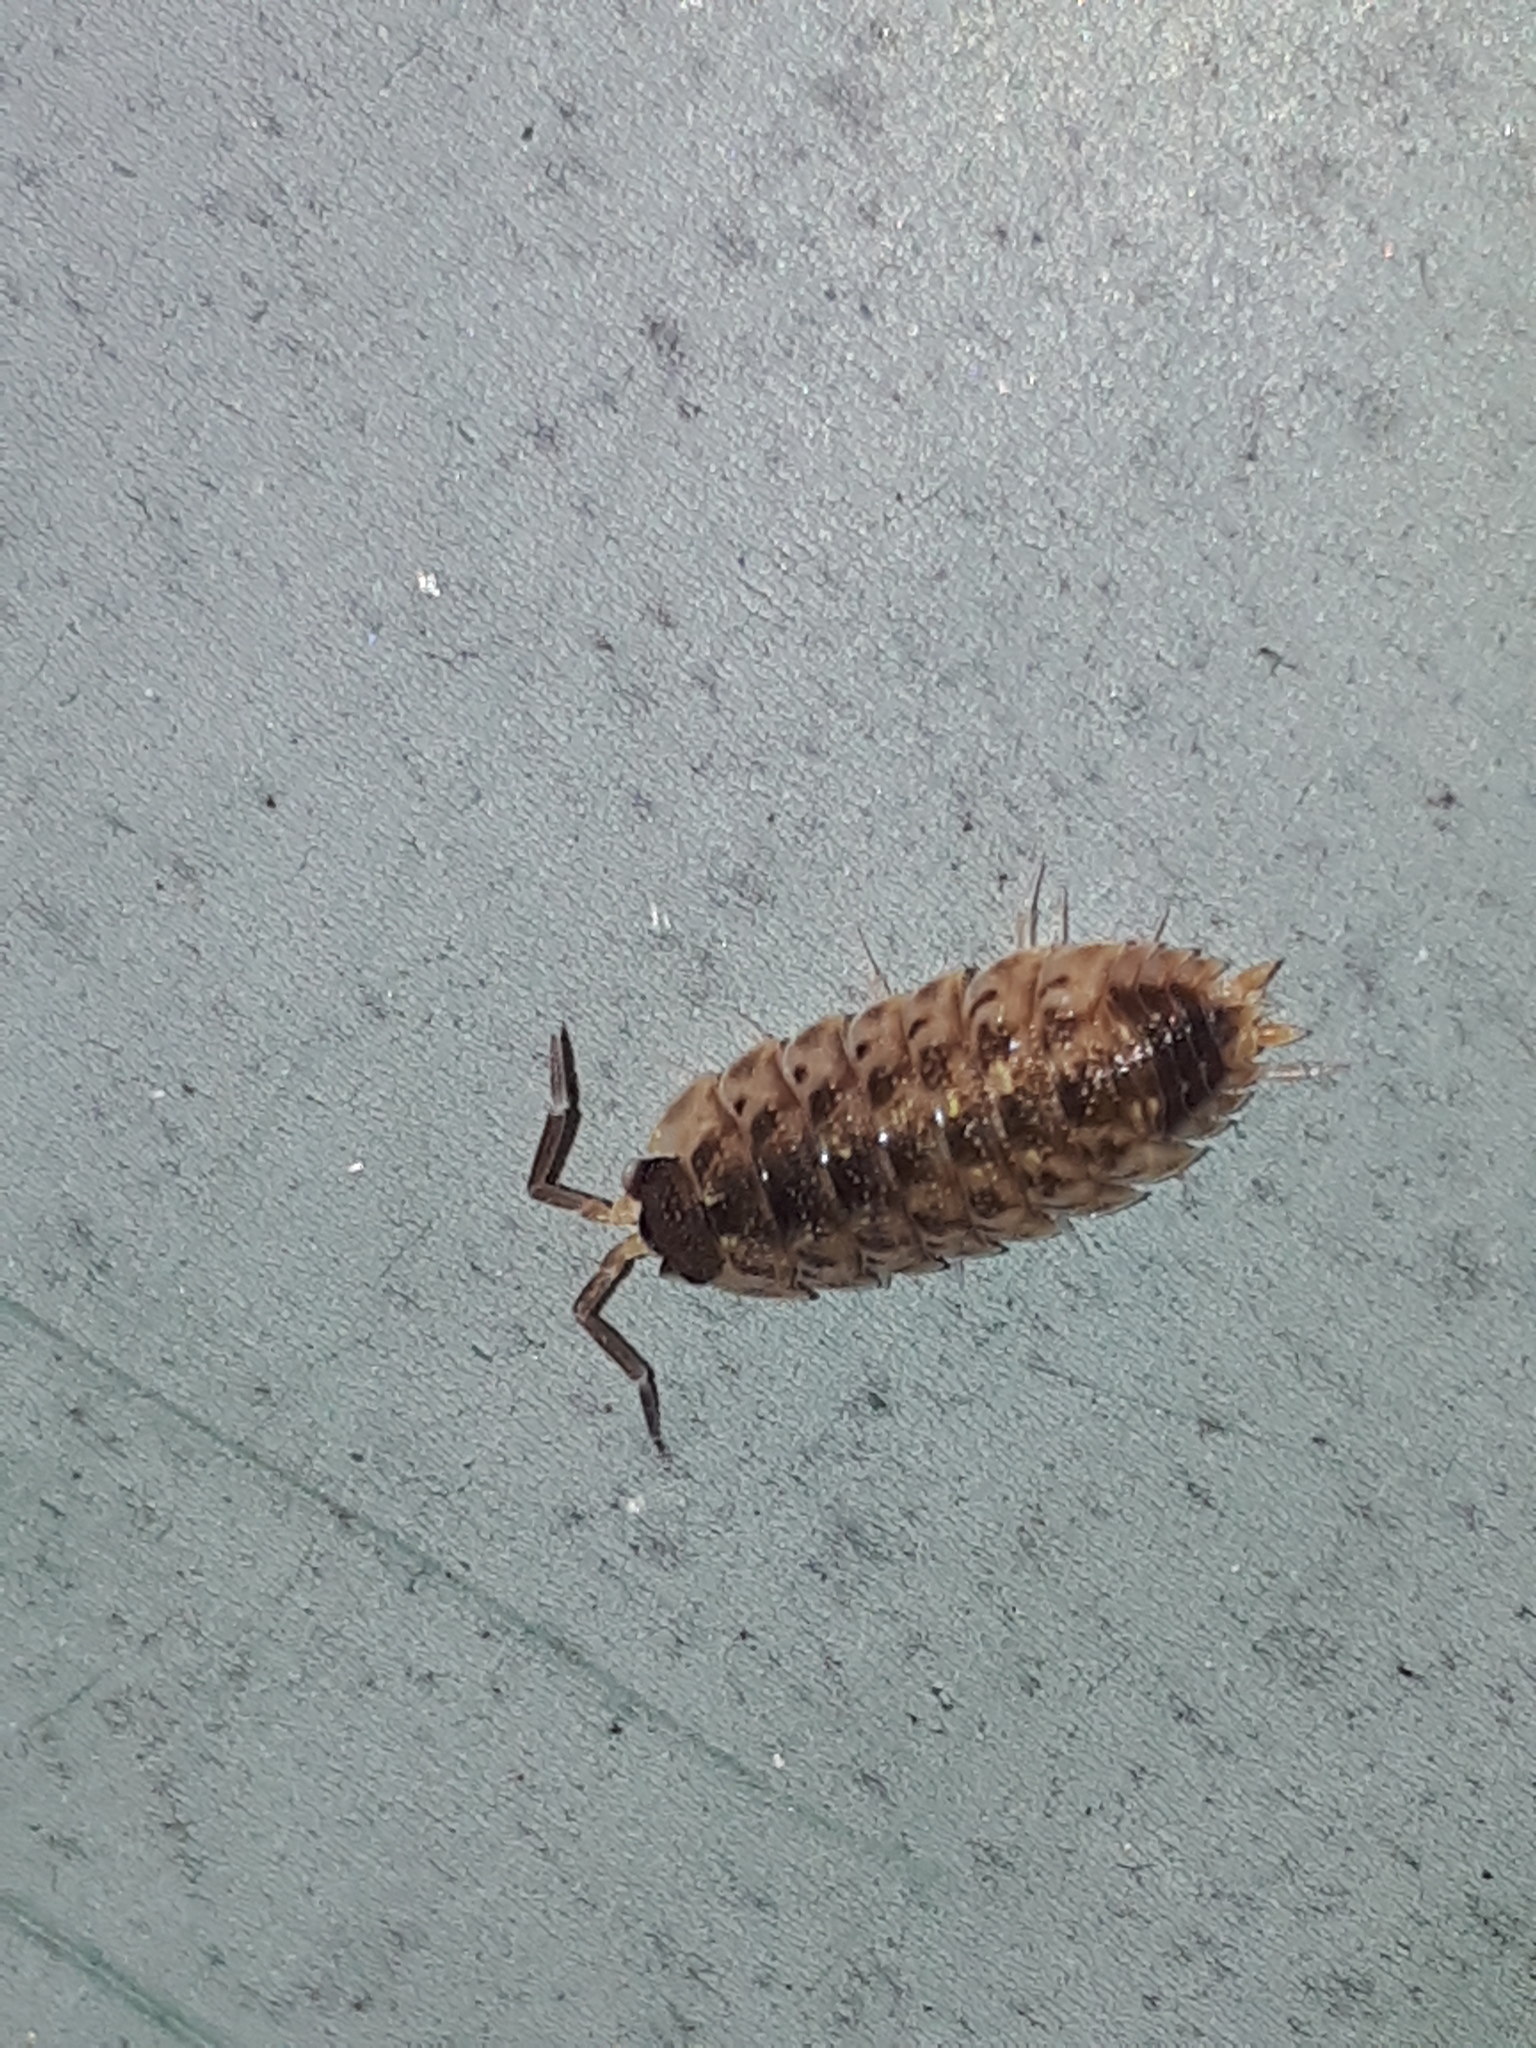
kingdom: Animalia
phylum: Arthropoda
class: Malacostraca
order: Isopoda
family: Porcellionidae
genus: Porcellio
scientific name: Porcellio spinicornis
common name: Painted woodlouse
